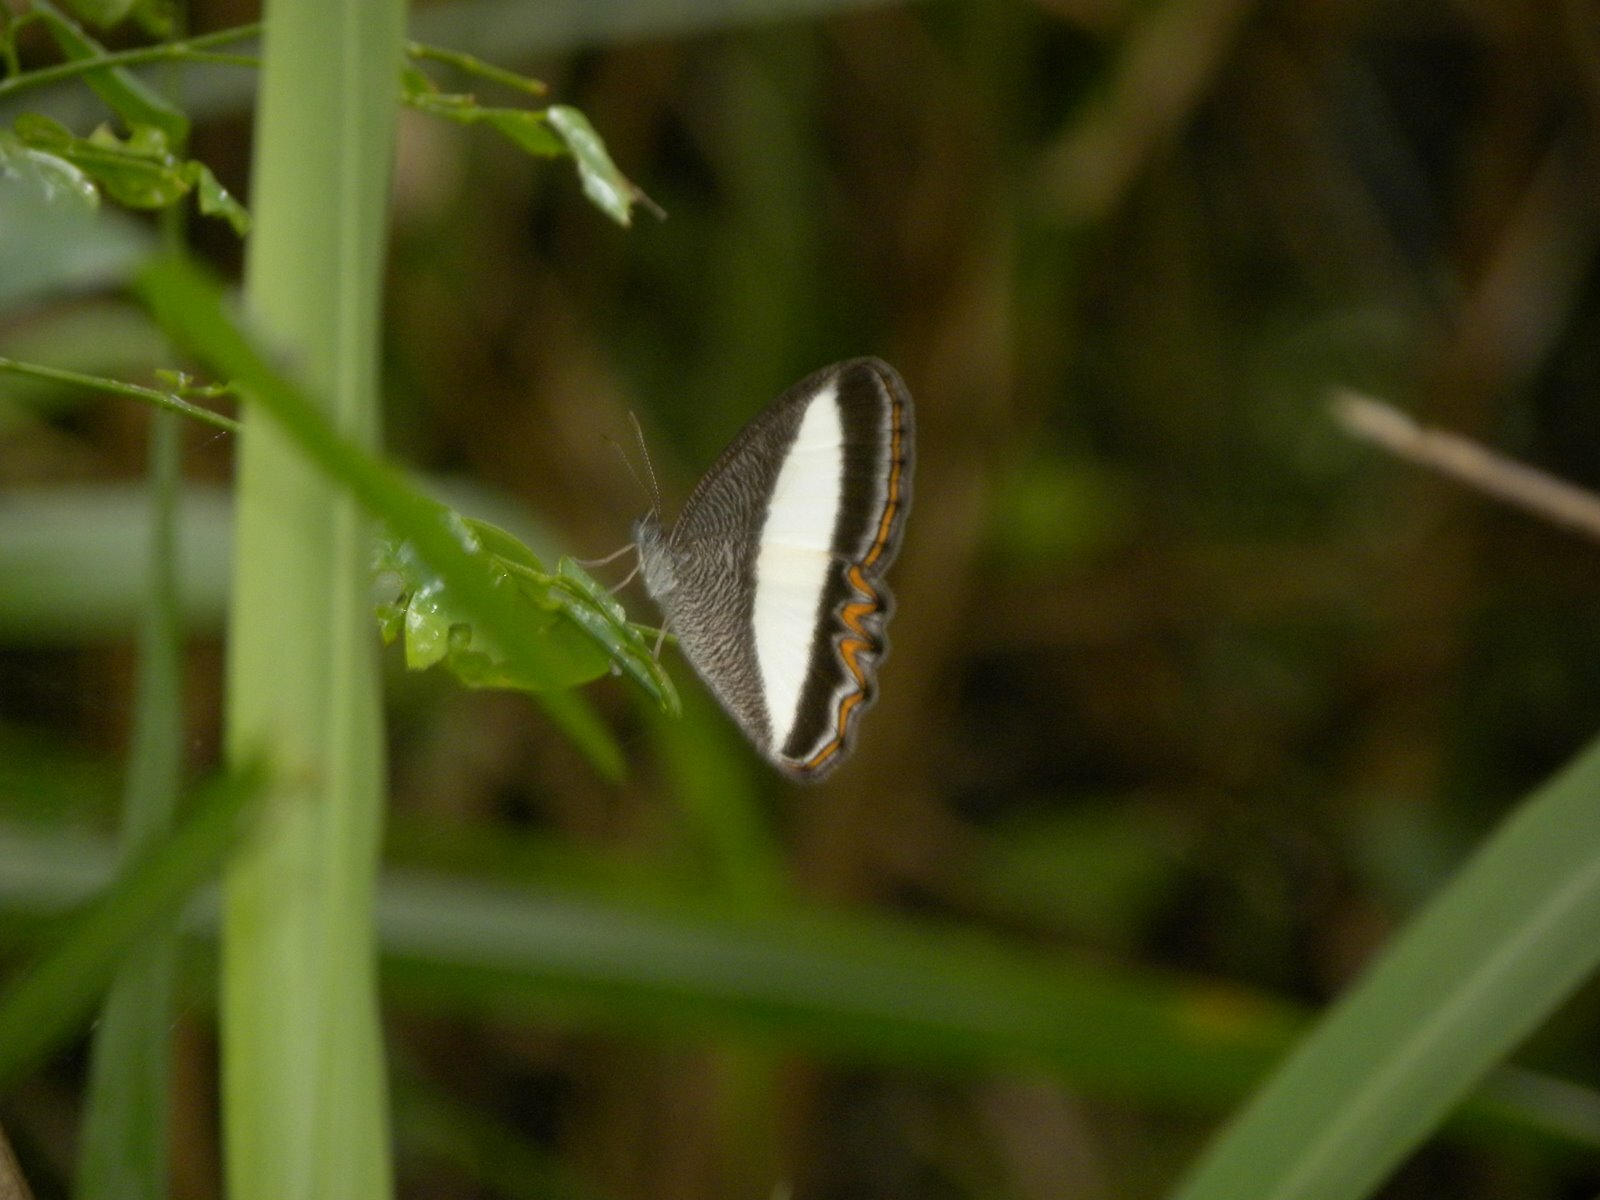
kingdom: Animalia
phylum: Arthropoda
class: Insecta
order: Lepidoptera
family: Nymphalidae
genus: Oressinoma
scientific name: Oressinoma typhla
